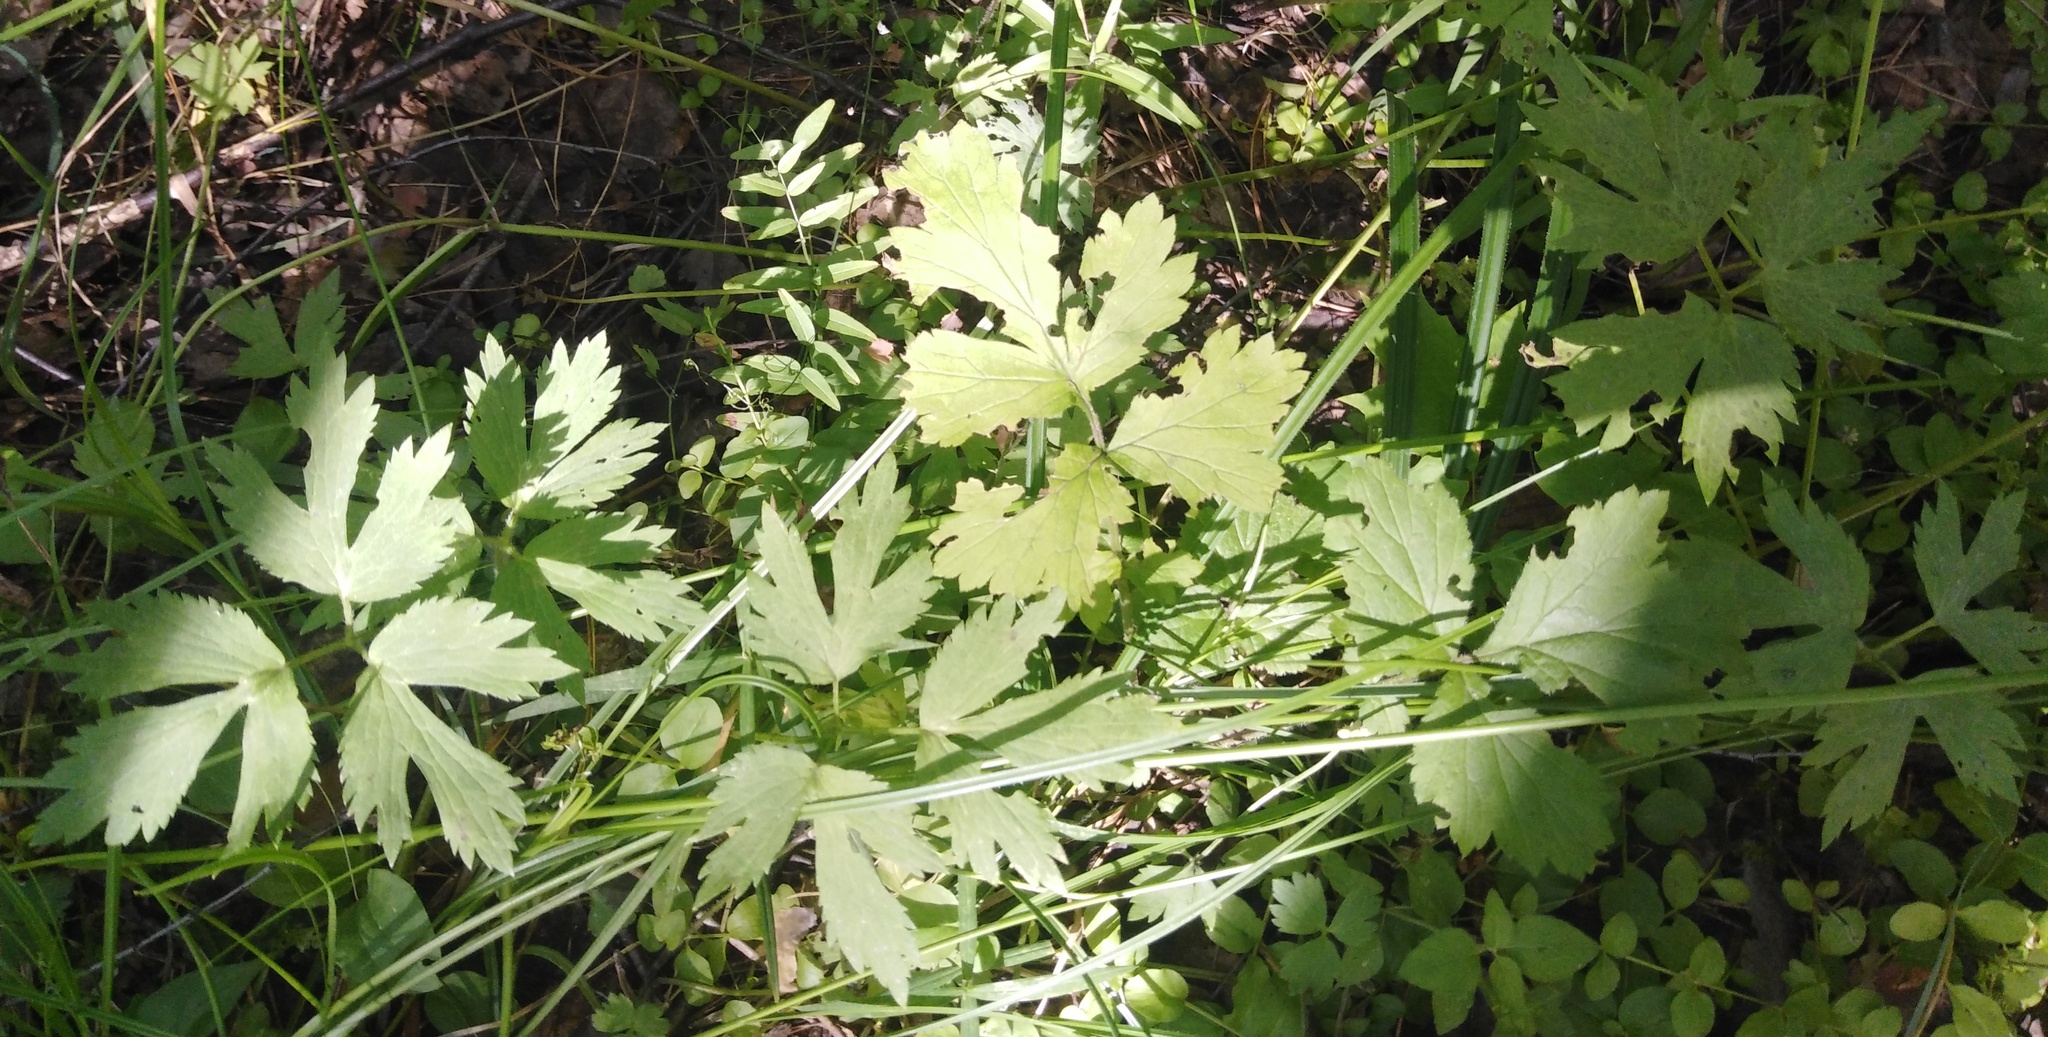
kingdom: Plantae
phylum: Tracheophyta
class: Magnoliopsida
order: Ranunculales
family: Ranunculaceae
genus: Ranunculus
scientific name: Ranunculus repens
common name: Creeping buttercup
